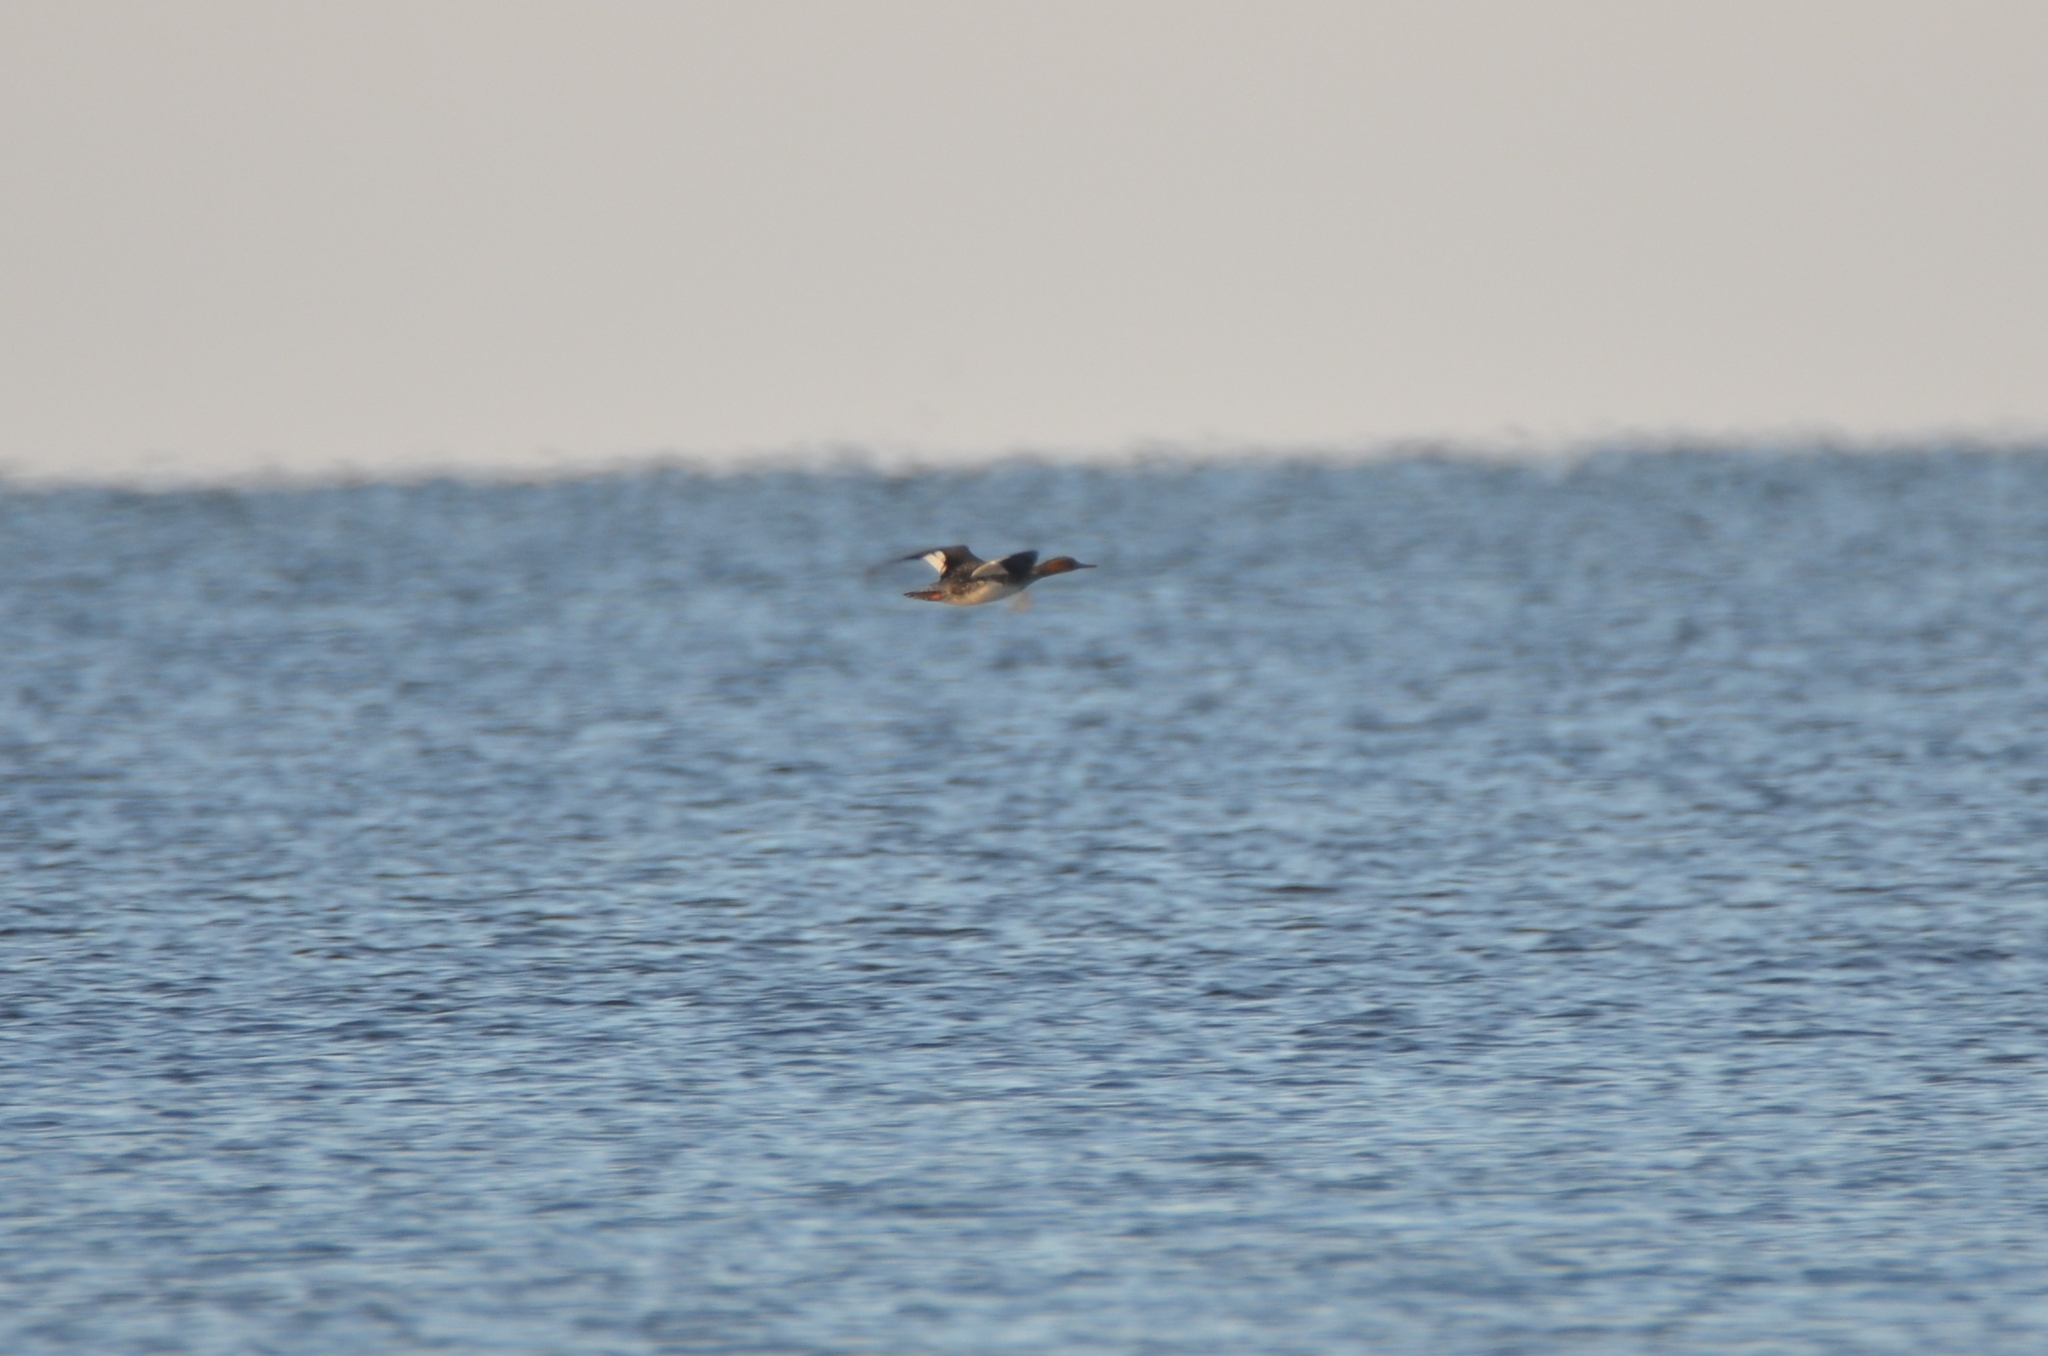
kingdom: Animalia
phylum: Chordata
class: Aves
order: Anseriformes
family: Anatidae
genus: Mergus
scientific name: Mergus serrator
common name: Red-breasted merganser
